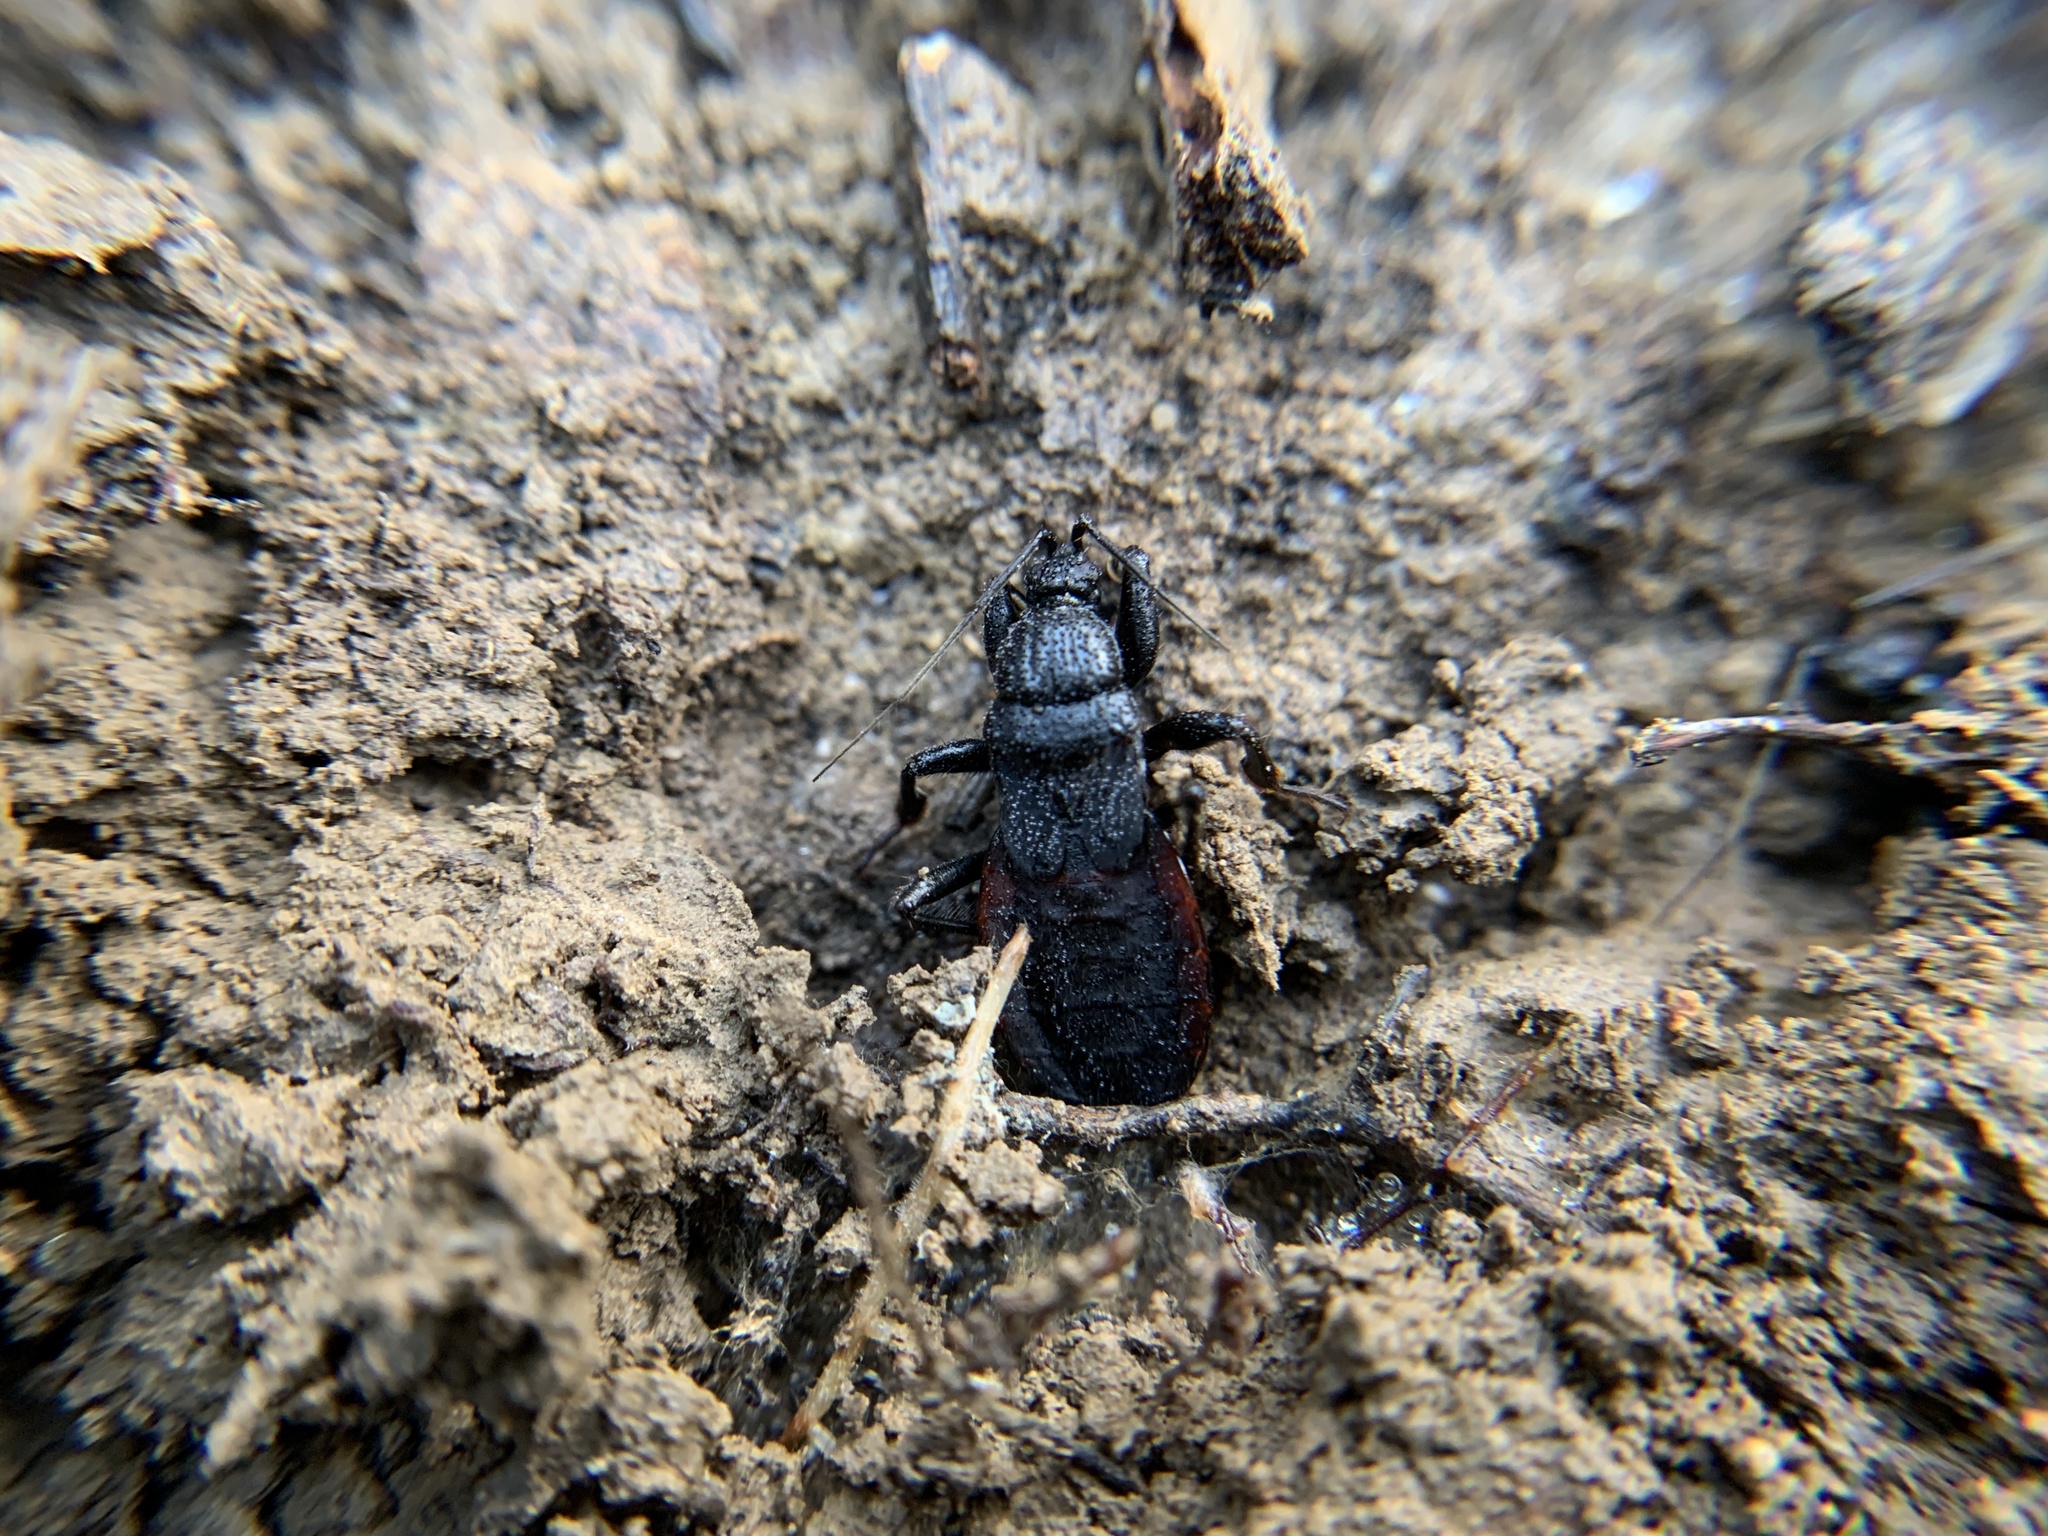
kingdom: Animalia
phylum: Arthropoda
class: Insecta
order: Hemiptera
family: Reduviidae
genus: Melanolestes
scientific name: Melanolestes picipes
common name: Assassin bug
